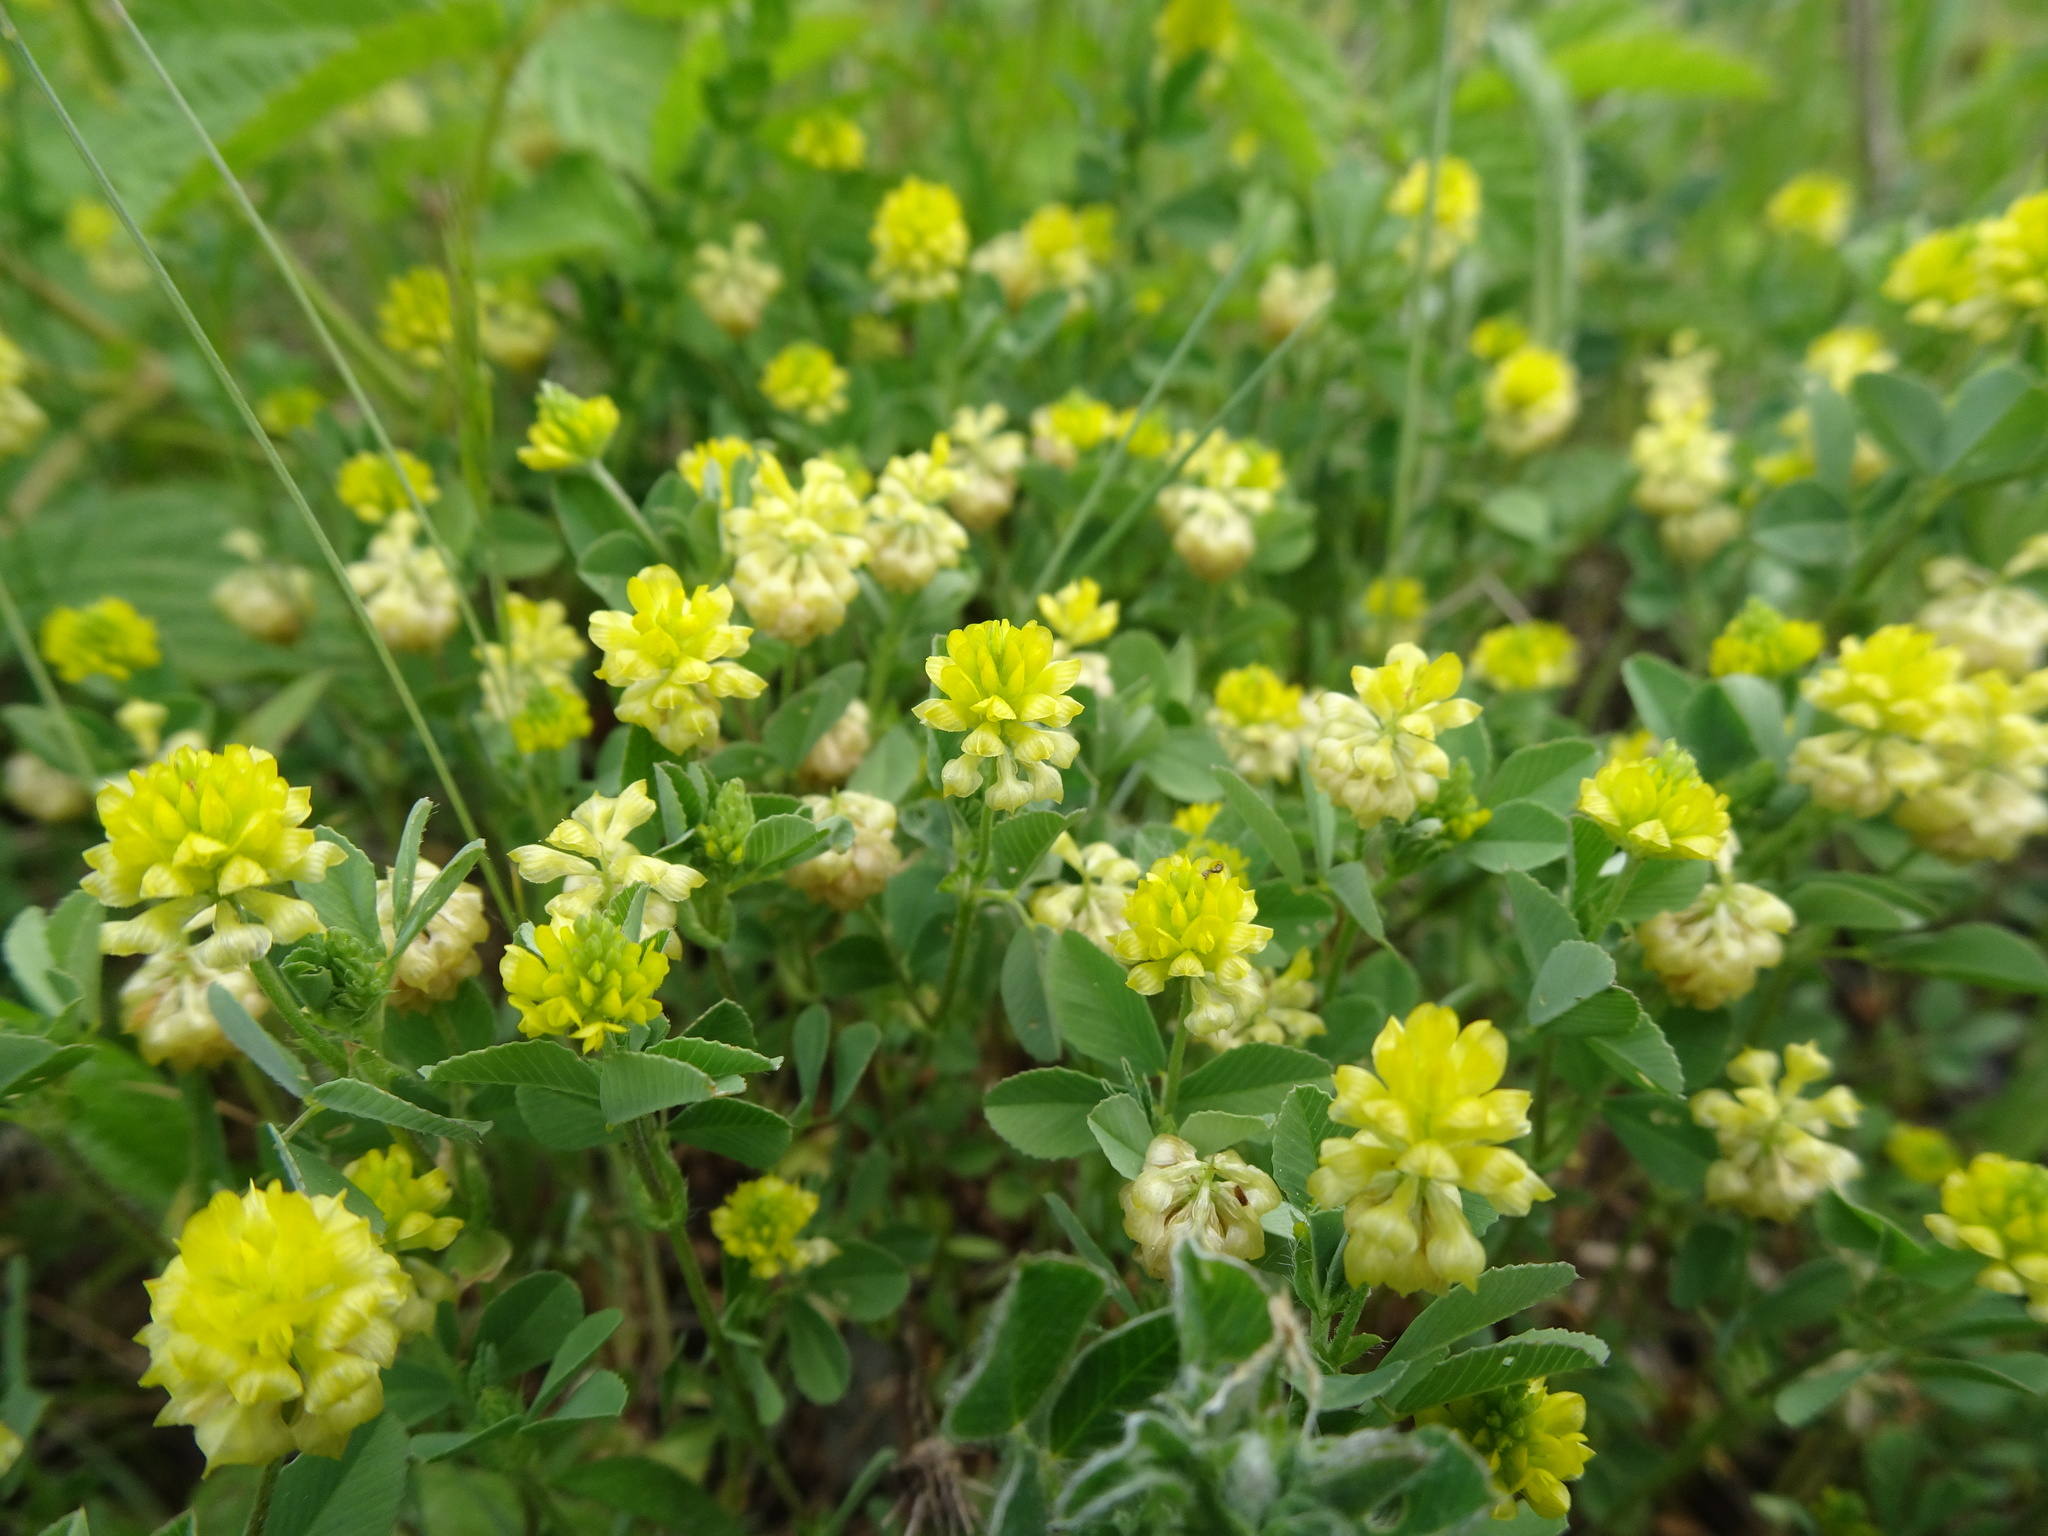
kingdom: Plantae
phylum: Tracheophyta
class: Magnoliopsida
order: Fabales
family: Fabaceae
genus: Trifolium
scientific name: Trifolium campestre
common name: Field clover
